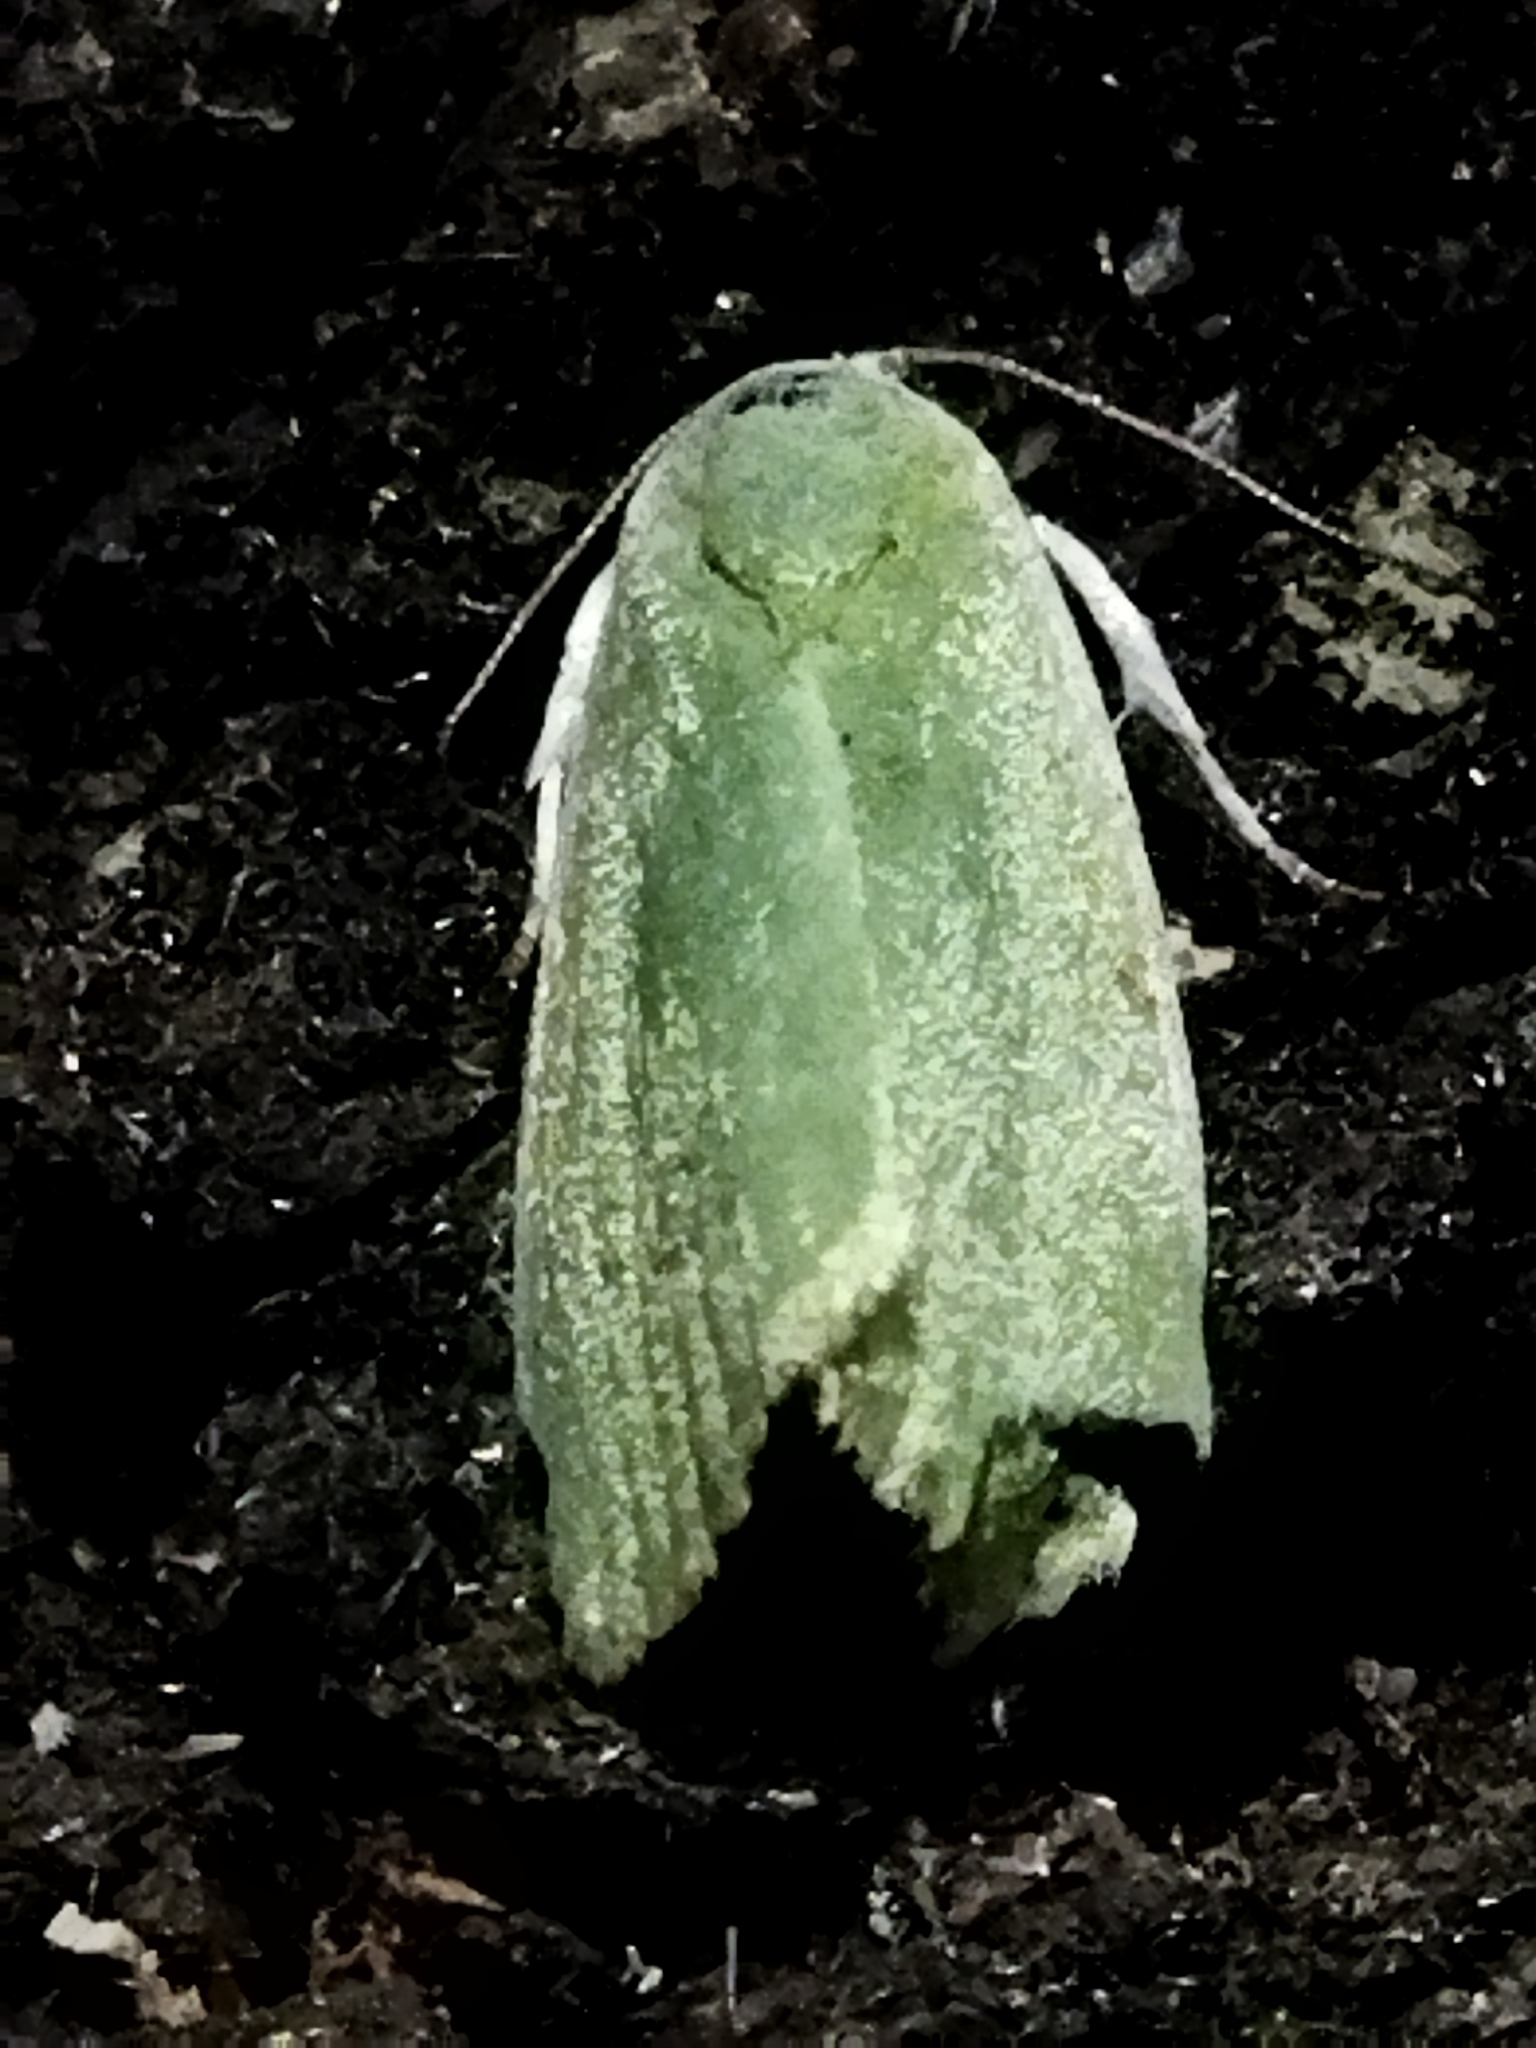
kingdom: Animalia
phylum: Arthropoda
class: Insecta
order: Lepidoptera
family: Nolidae
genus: Earias
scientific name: Earias clorana
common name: Cream-bordered green pea
